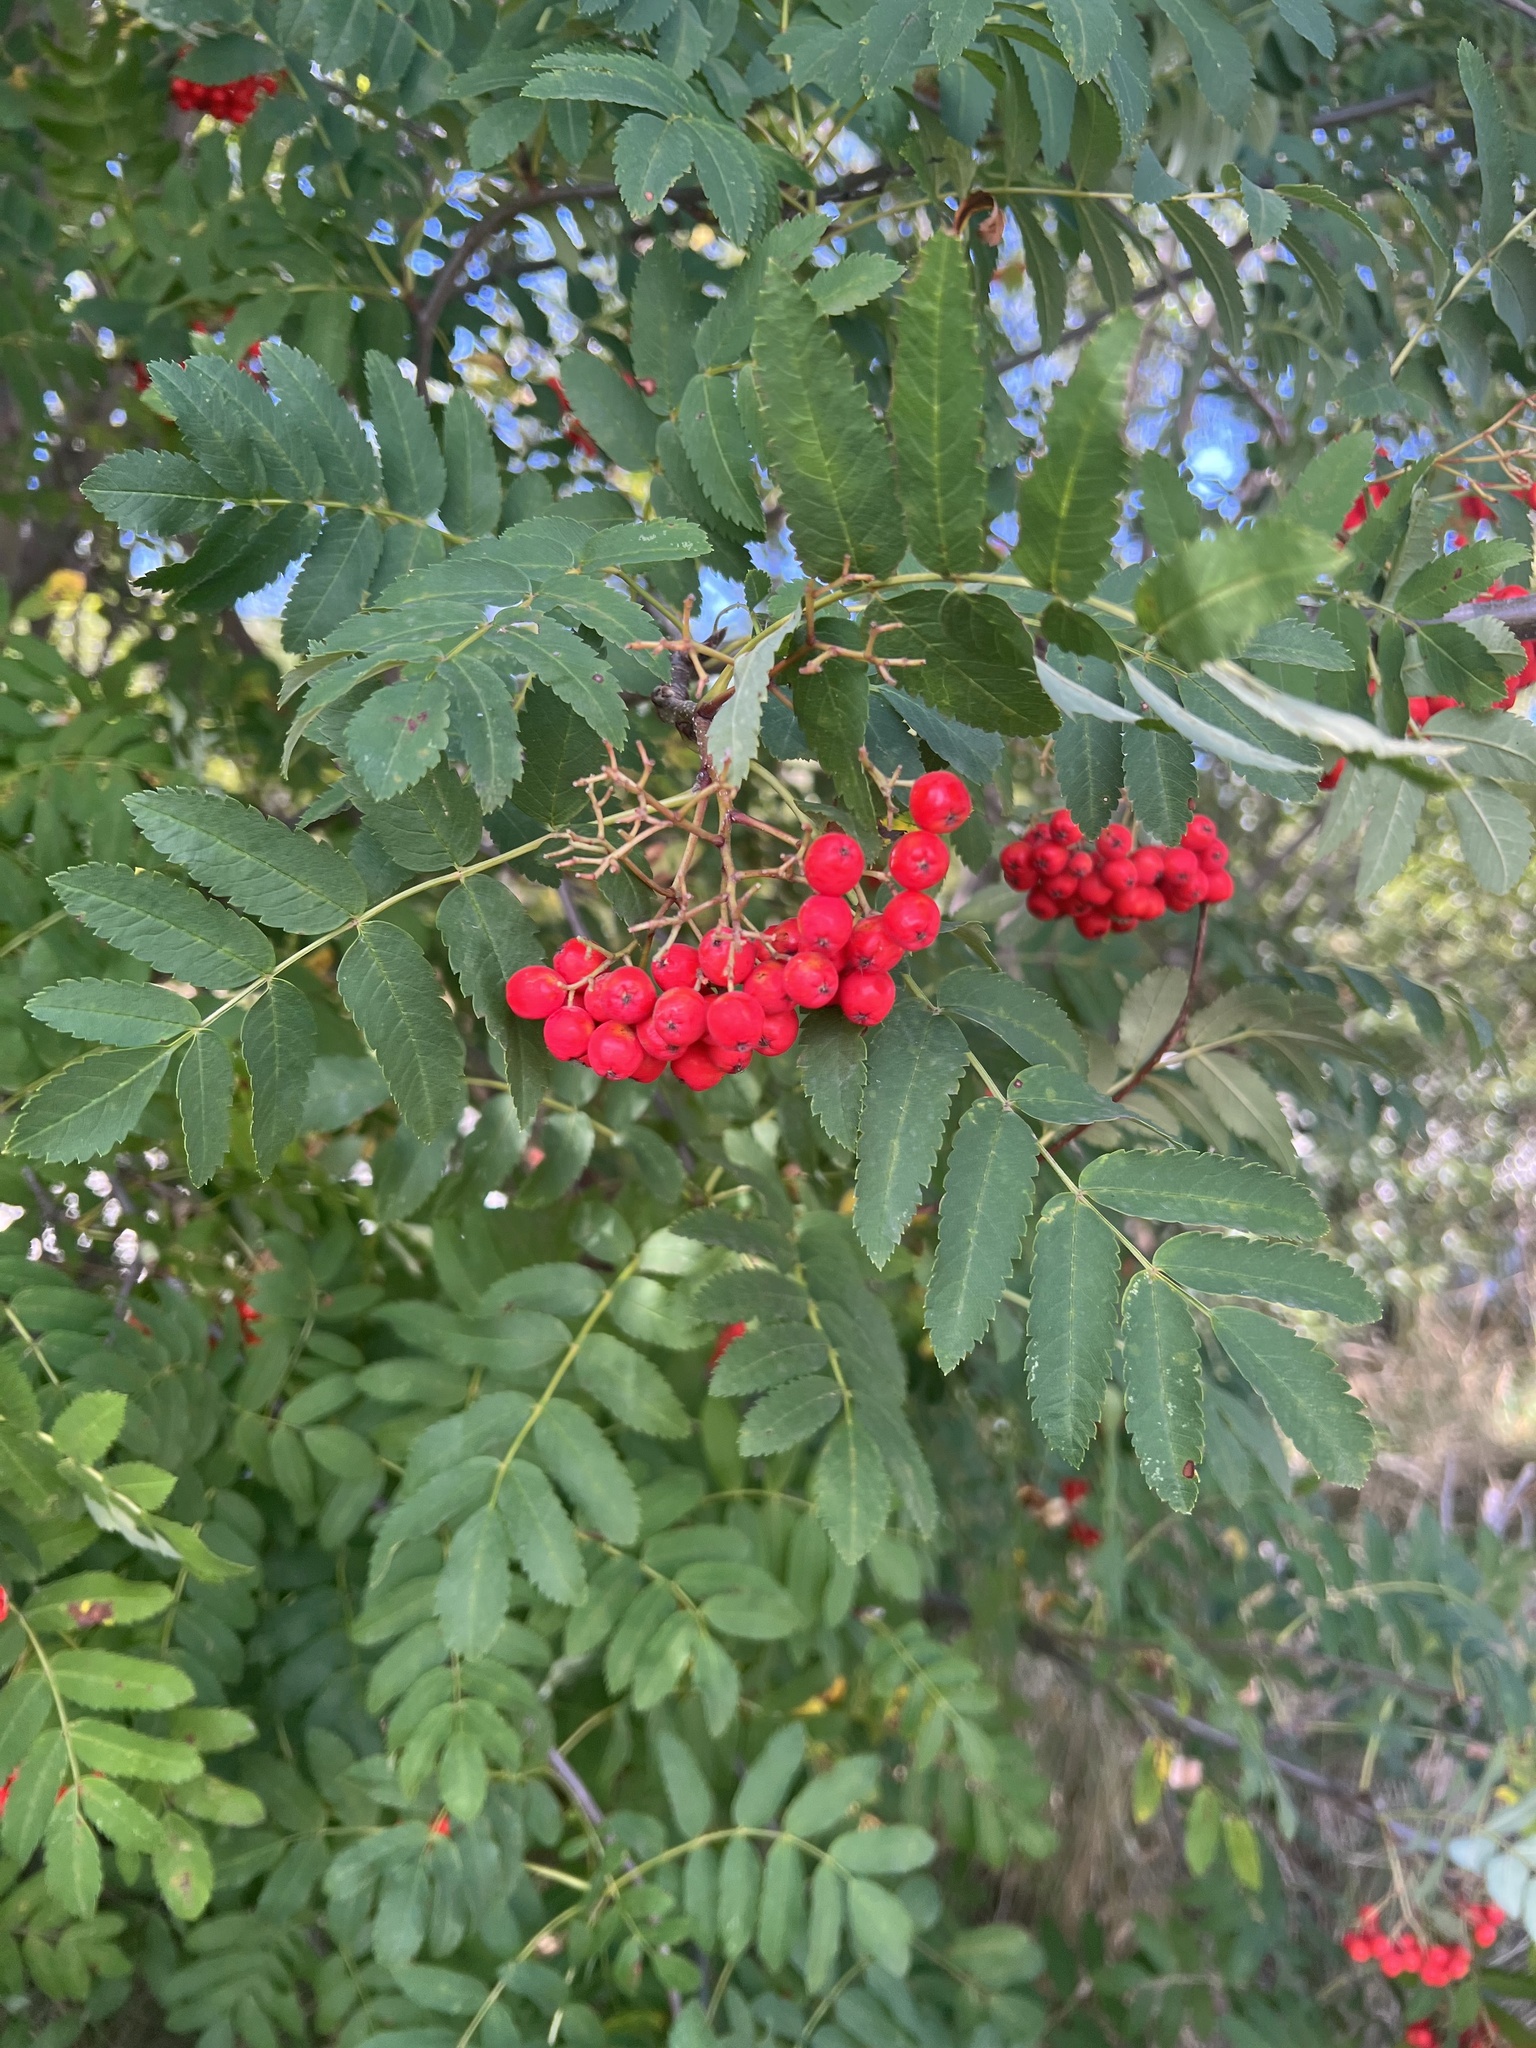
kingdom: Plantae
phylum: Tracheophyta
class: Magnoliopsida
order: Rosales
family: Rosaceae
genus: Sorbus
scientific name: Sorbus aucuparia
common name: Rowan
